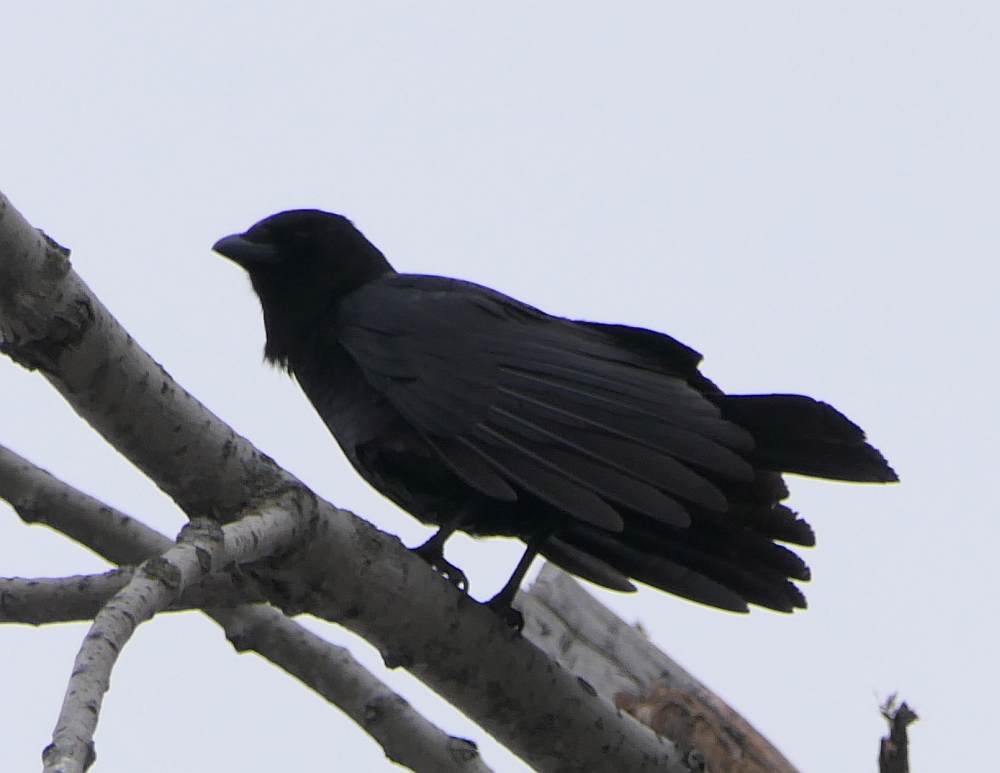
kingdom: Animalia
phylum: Chordata
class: Aves
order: Passeriformes
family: Corvidae
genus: Corvus
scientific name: Corvus brachyrhynchos
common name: American crow
